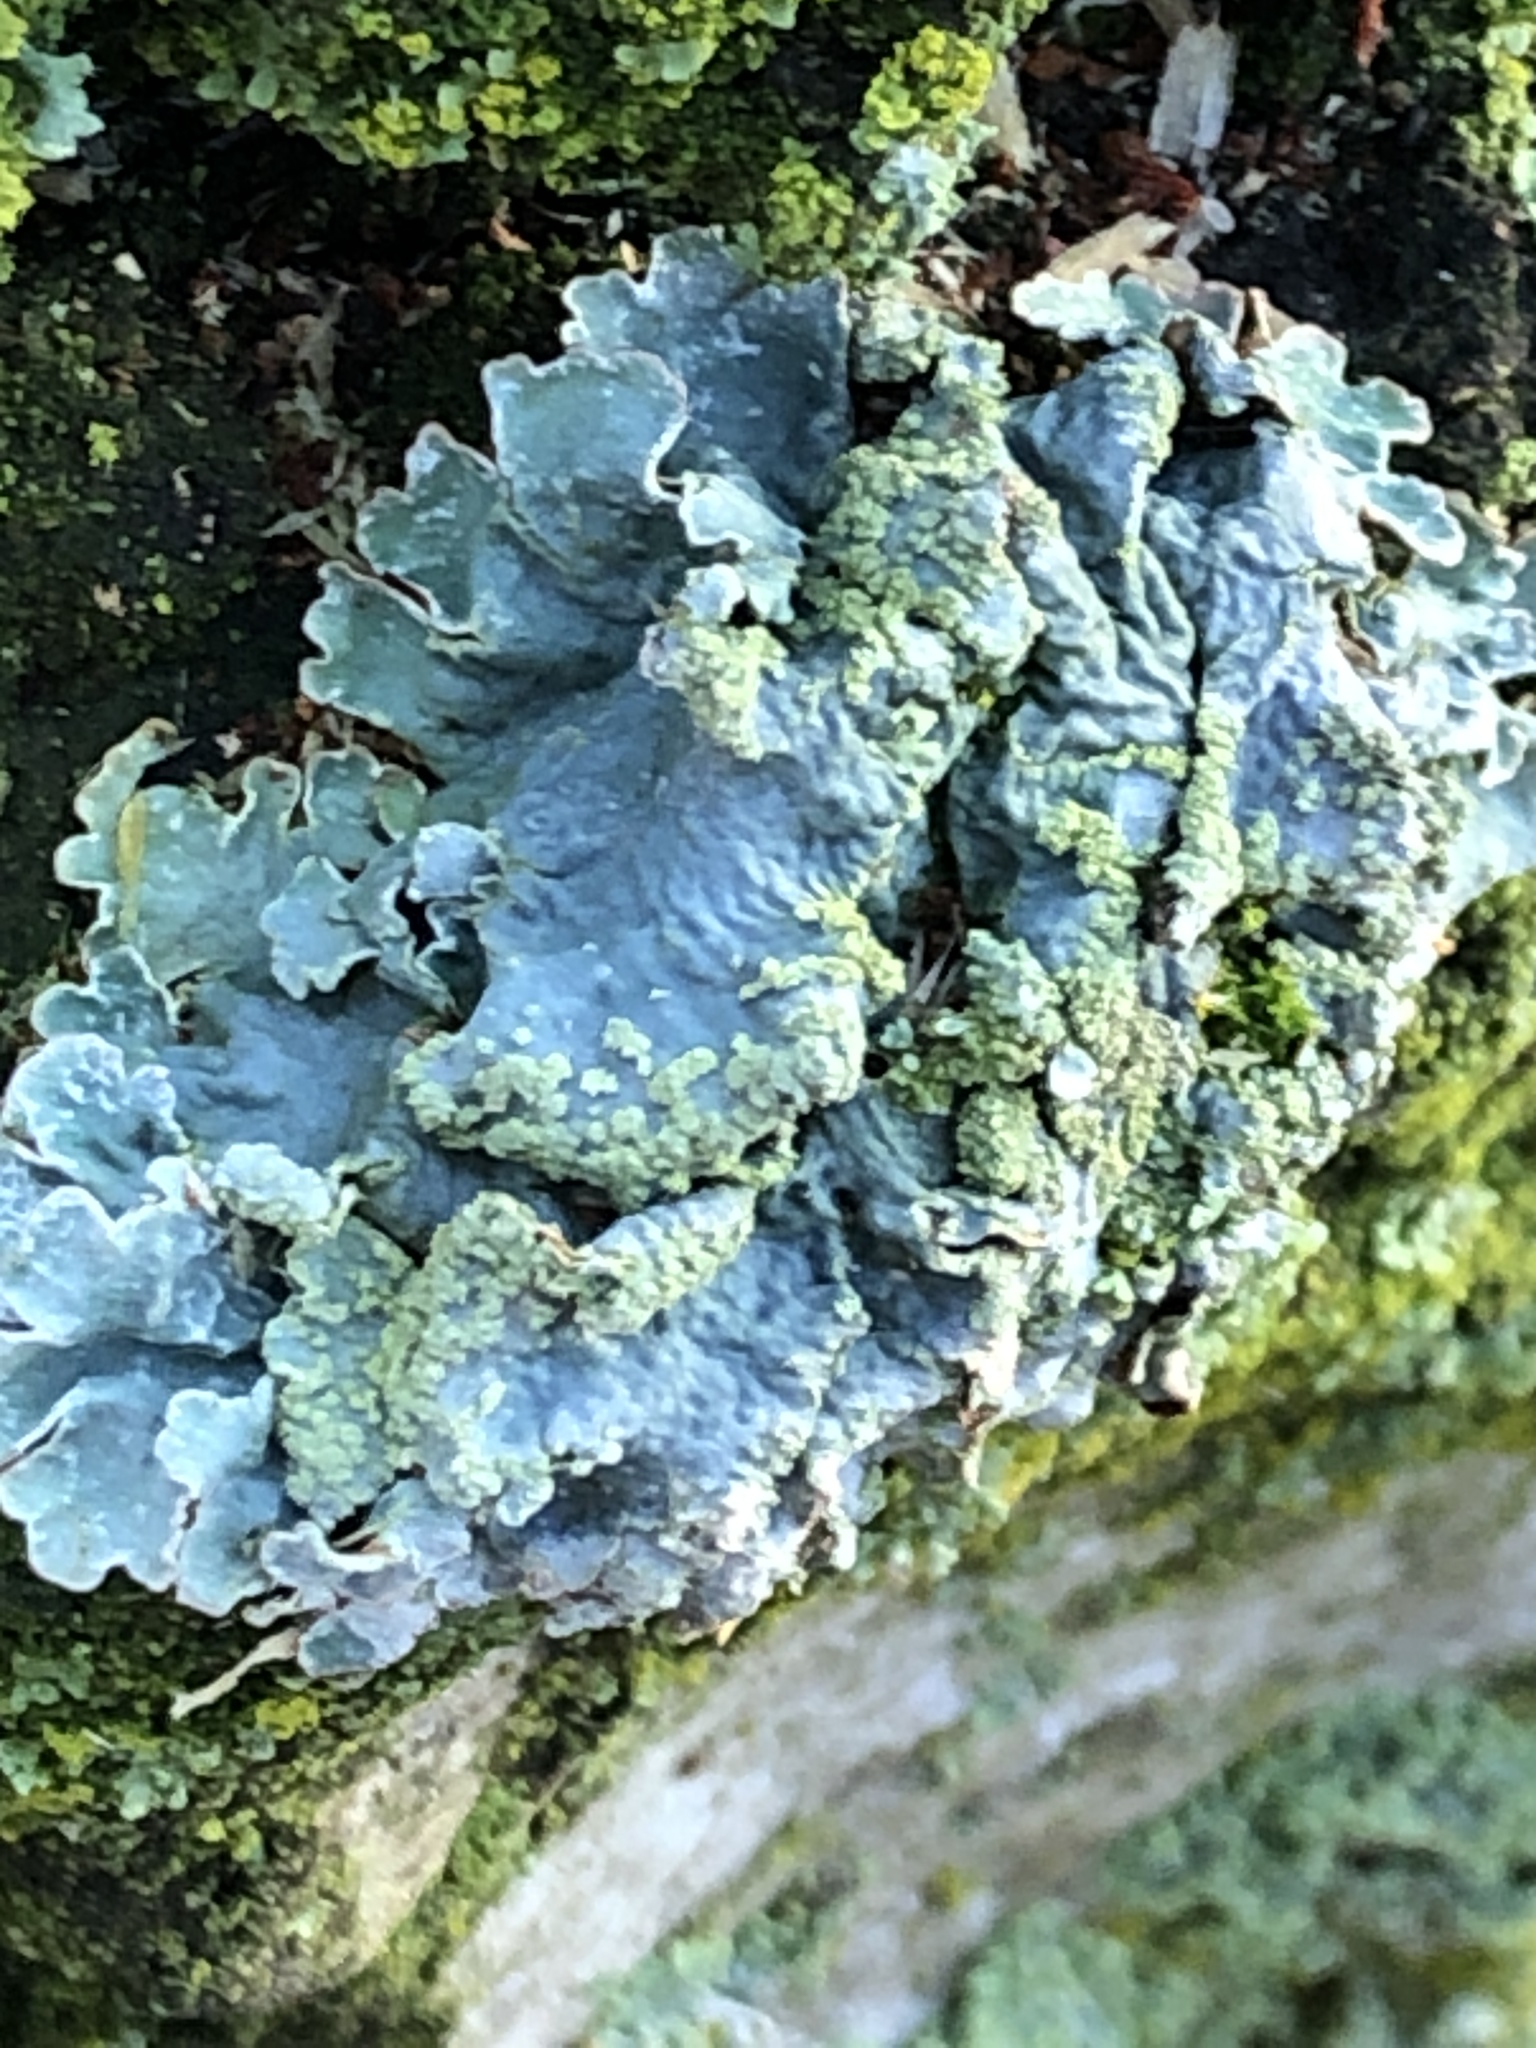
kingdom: Fungi
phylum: Ascomycota
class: Lecanoromycetes
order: Lecanorales
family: Parmeliaceae
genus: Parmelia
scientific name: Parmelia sulcata
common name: Netted shield lichen
